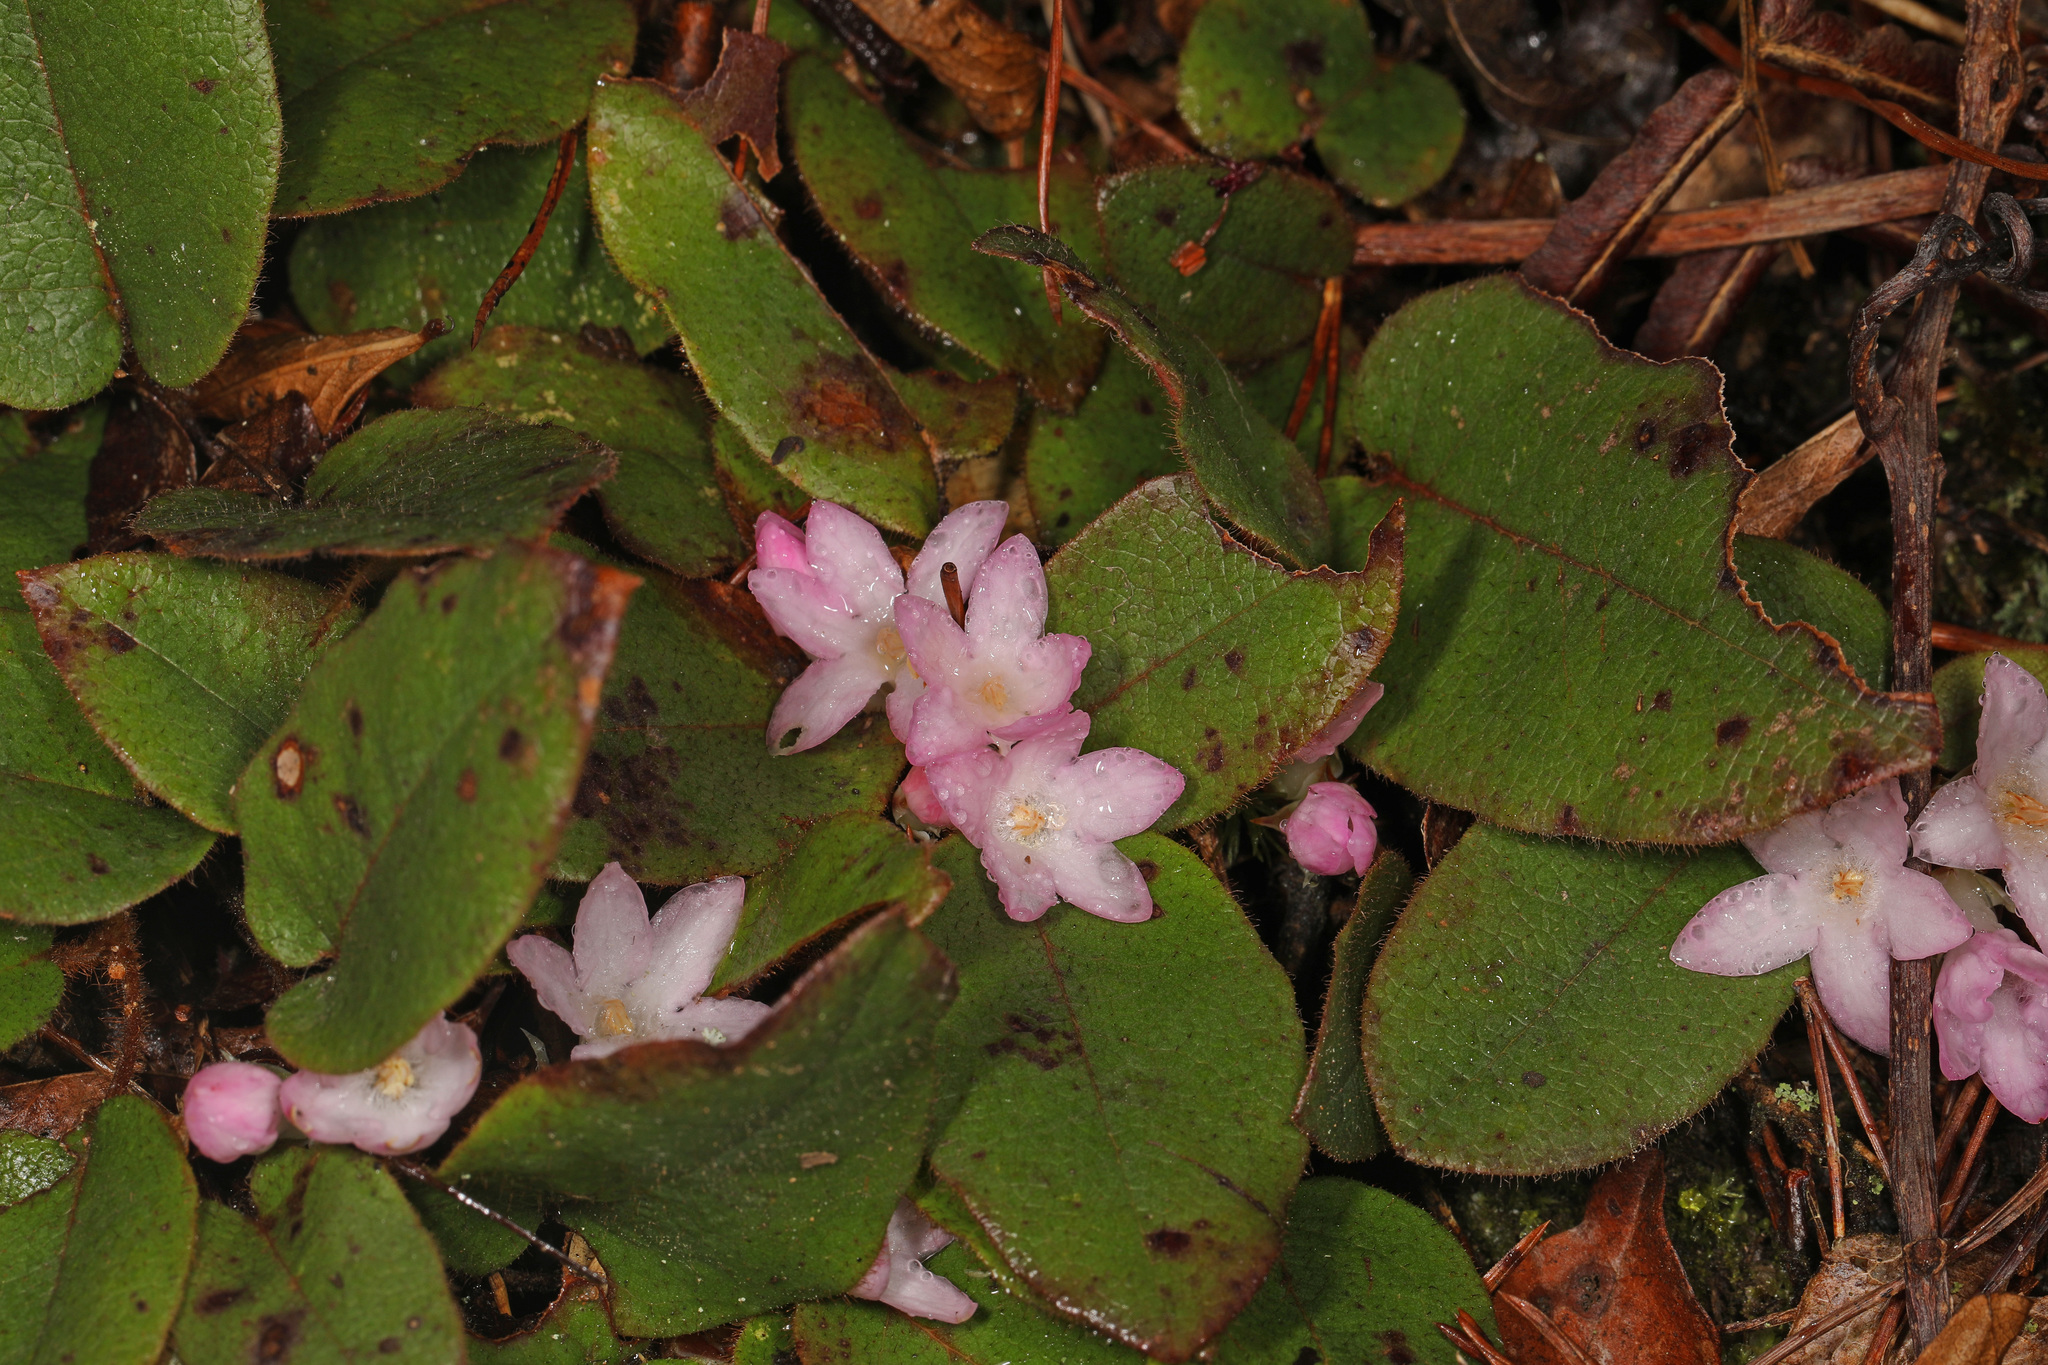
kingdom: Plantae
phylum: Tracheophyta
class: Magnoliopsida
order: Ericales
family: Ericaceae
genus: Epigaea
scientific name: Epigaea repens
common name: Gravelroot
